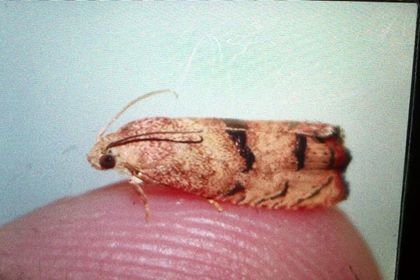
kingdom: Animalia
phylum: Arthropoda
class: Insecta
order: Lepidoptera
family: Tortricidae
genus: Cydia
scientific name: Cydia latiferreana
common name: Filbertworm moth
